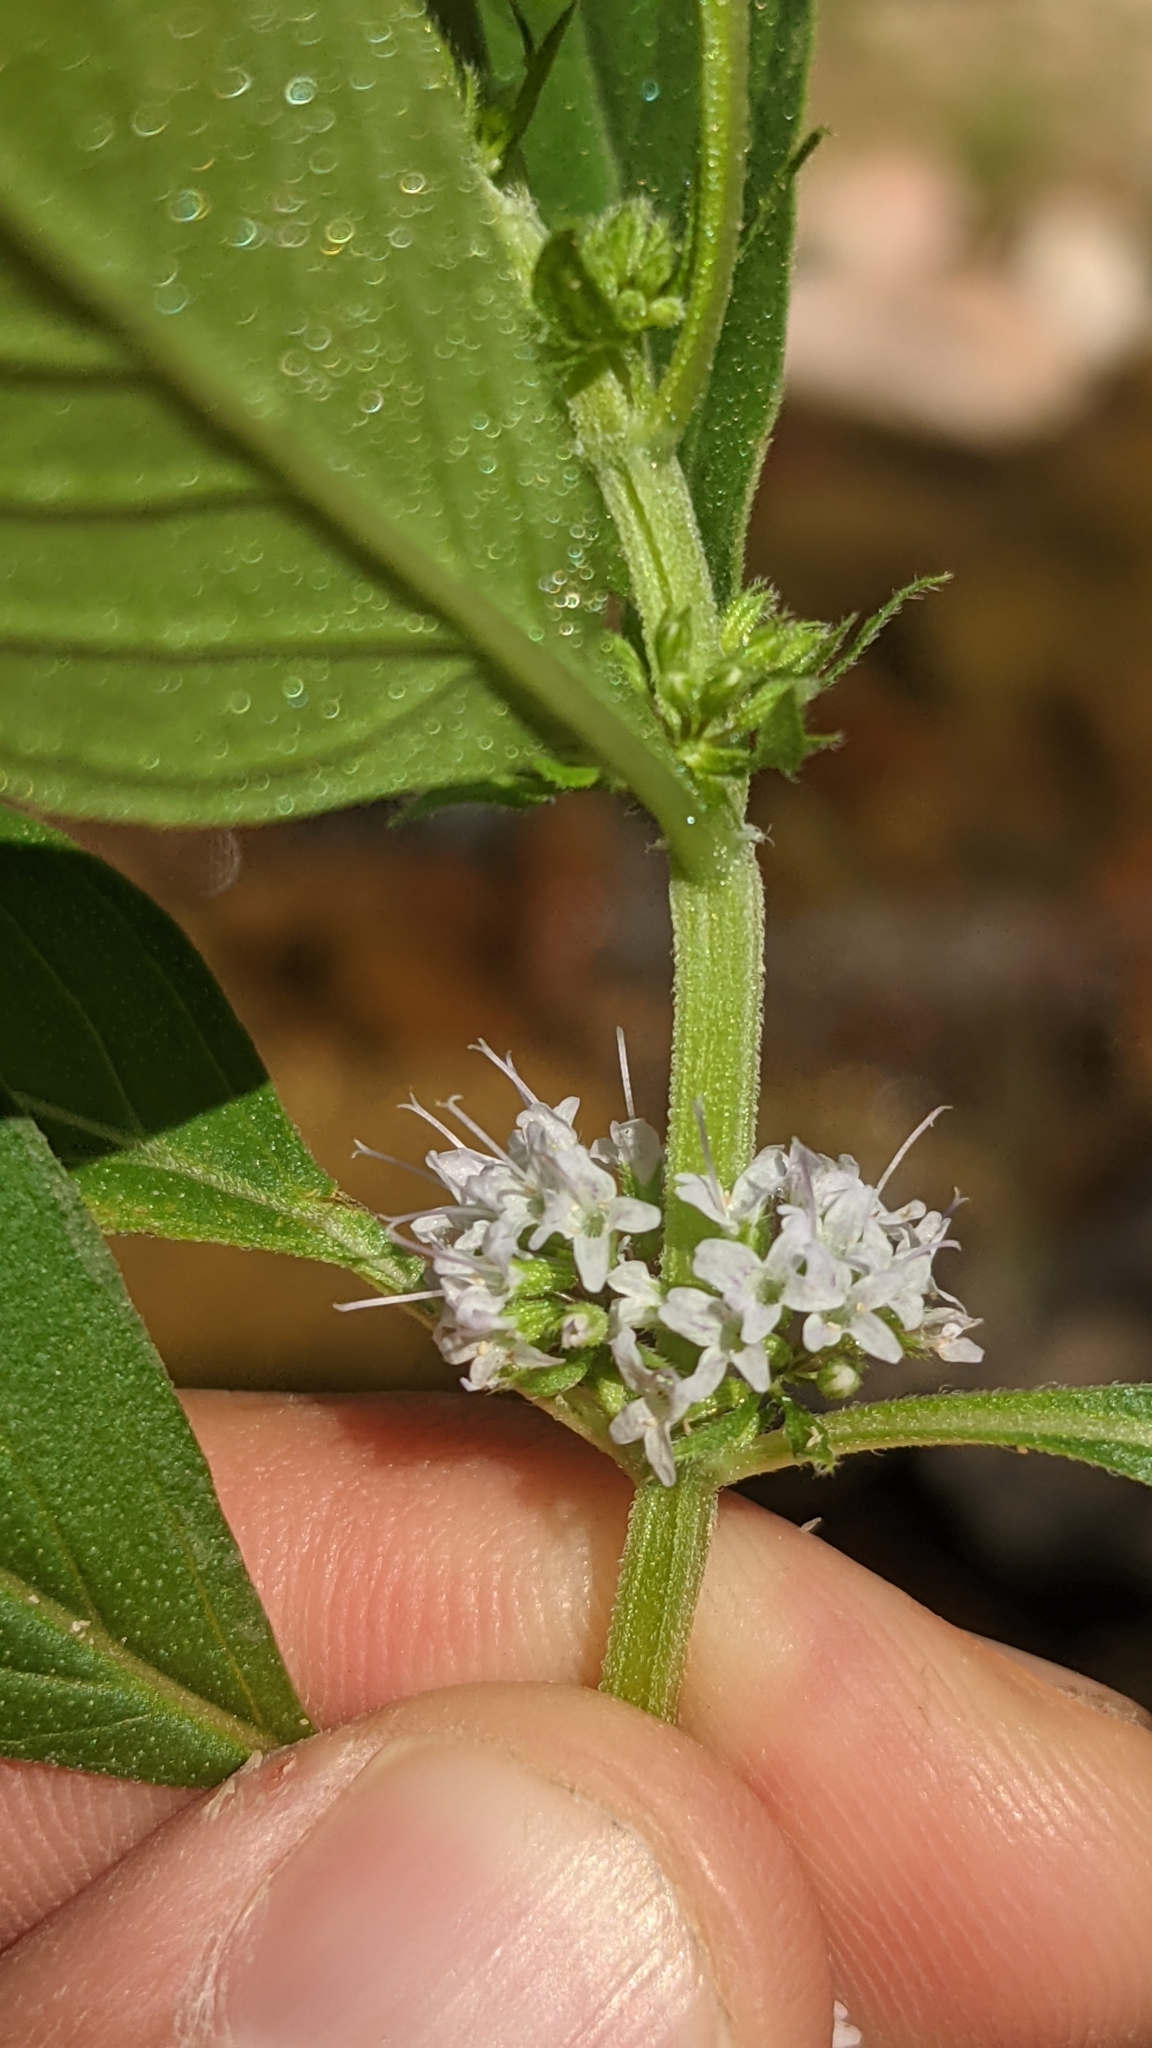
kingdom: Plantae
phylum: Tracheophyta
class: Magnoliopsida
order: Lamiales
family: Lamiaceae
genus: Mentha
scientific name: Mentha canadensis
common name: American corn mint
